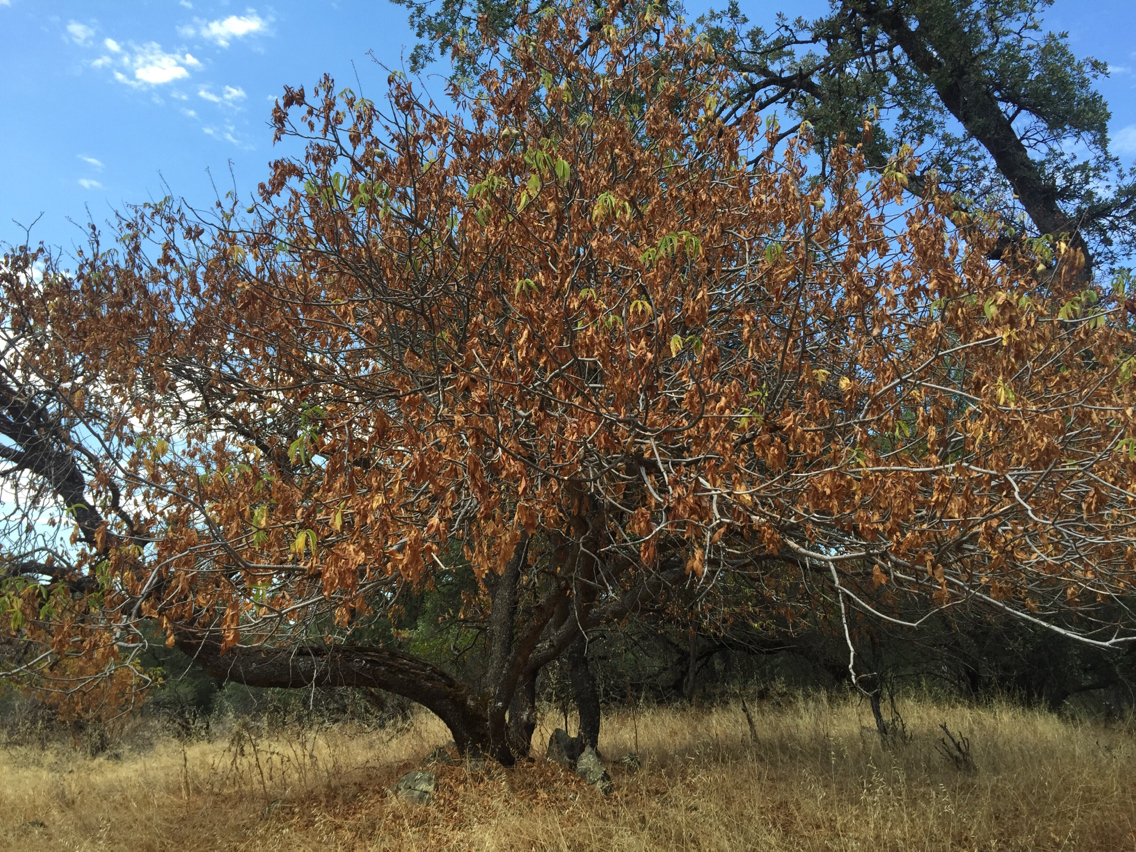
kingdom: Plantae
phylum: Tracheophyta
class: Magnoliopsida
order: Sapindales
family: Sapindaceae
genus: Aesculus
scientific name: Aesculus californica
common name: California buckeye
